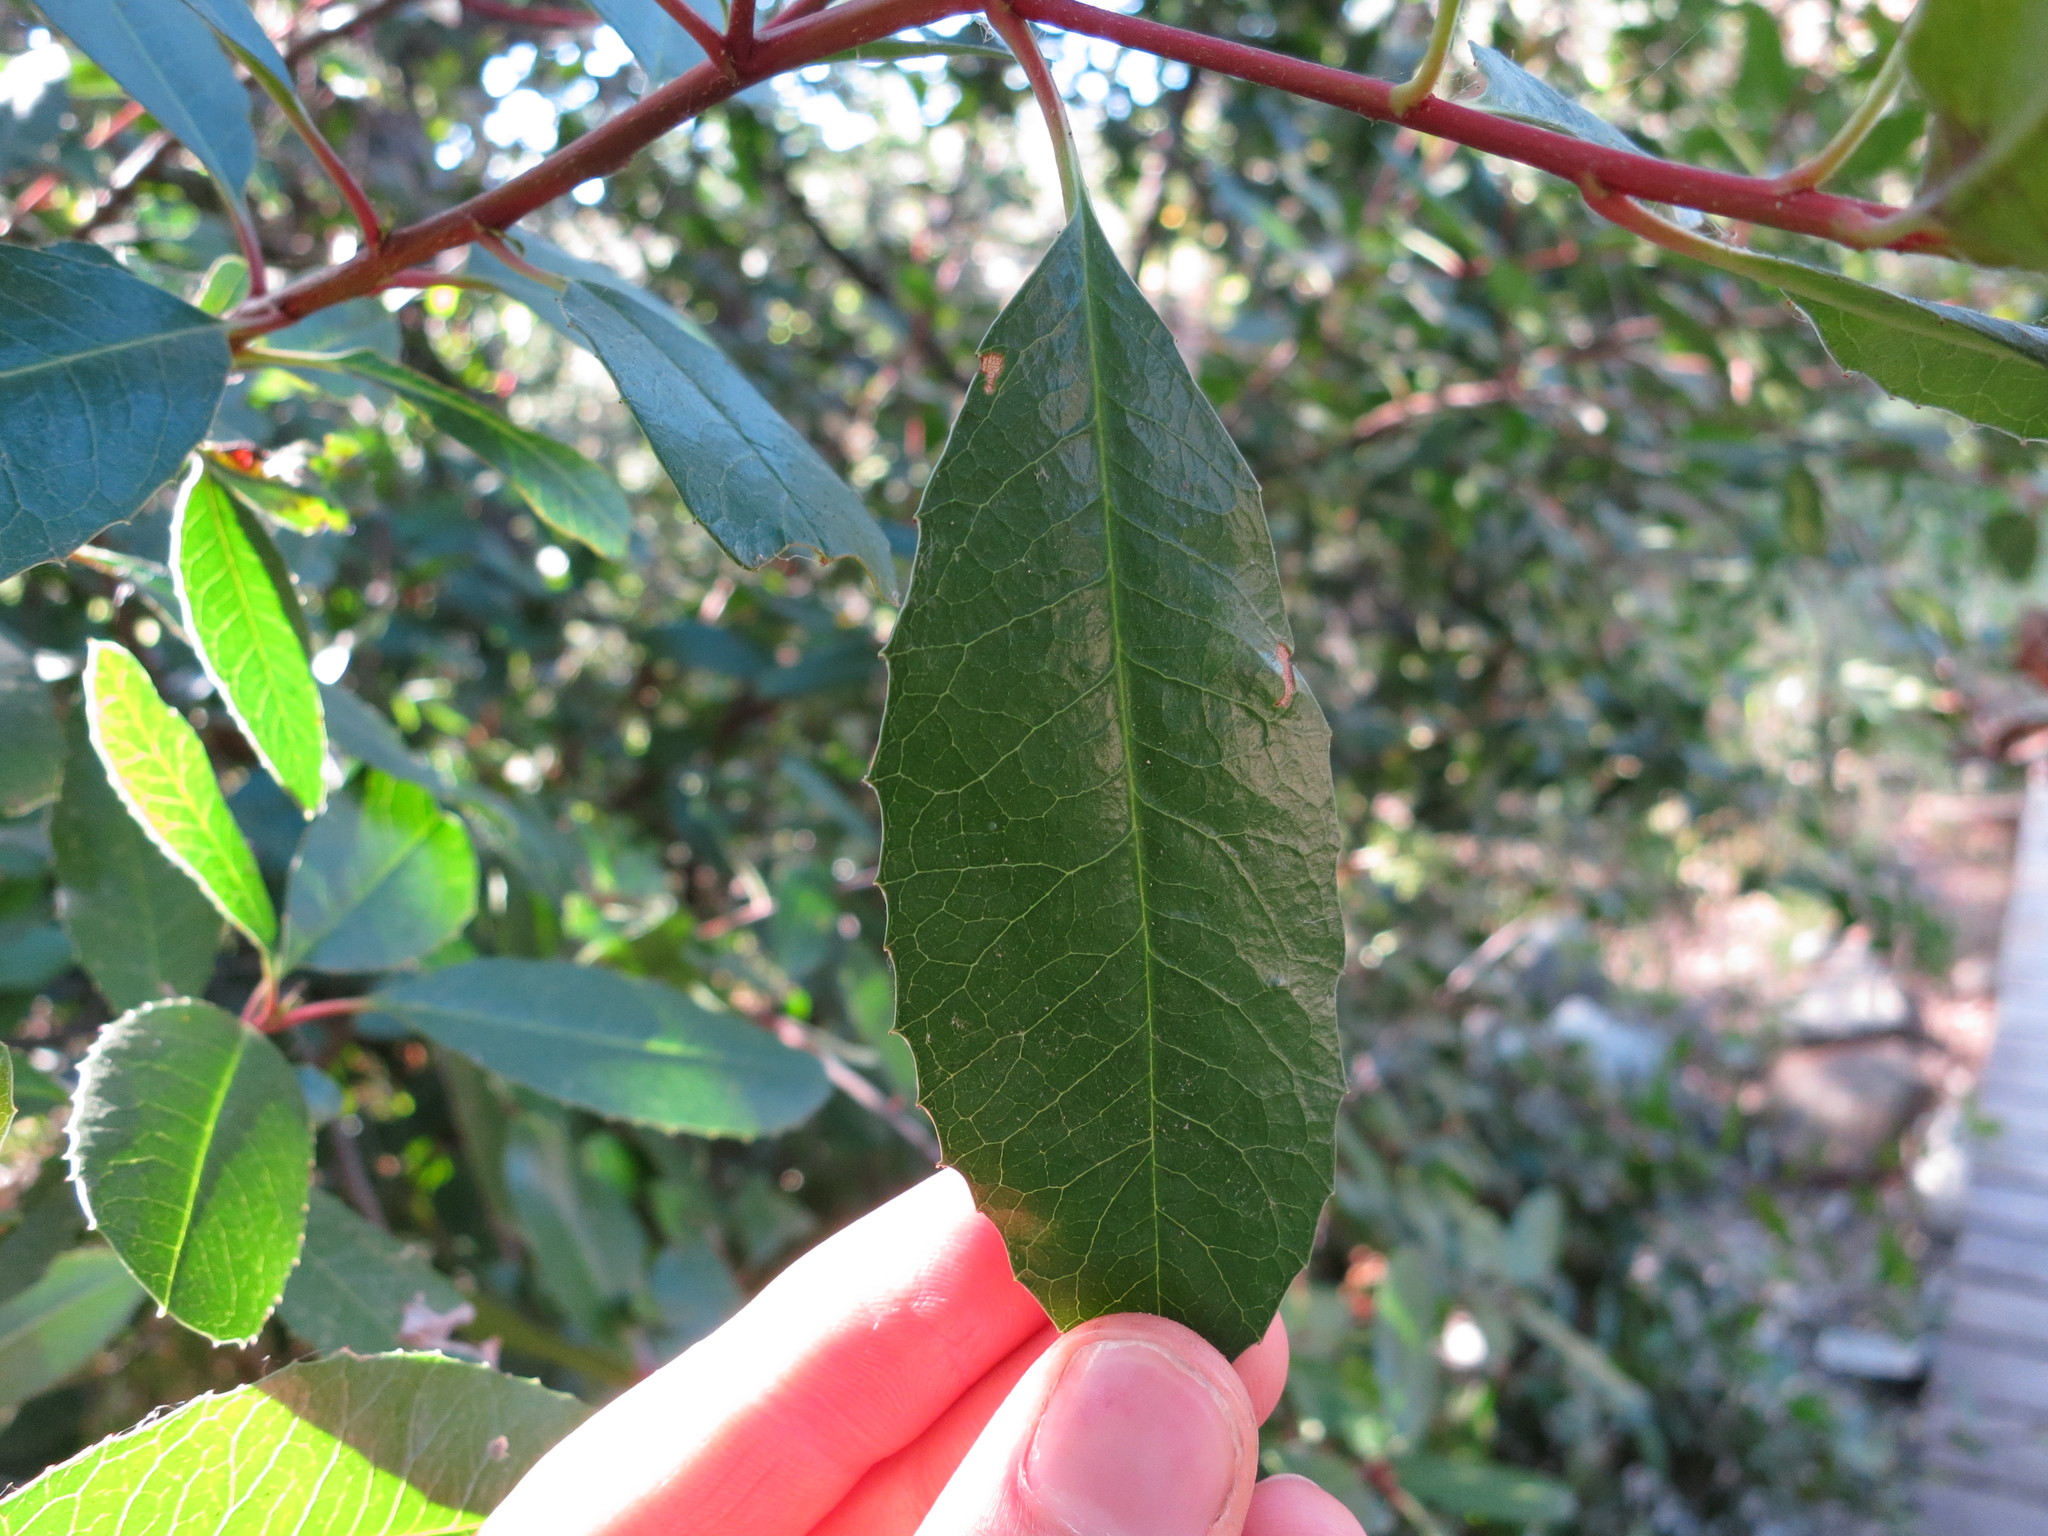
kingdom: Plantae
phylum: Tracheophyta
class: Magnoliopsida
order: Rosales
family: Rosaceae
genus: Heteromeles
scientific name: Heteromeles arbutifolia
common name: California-holly
